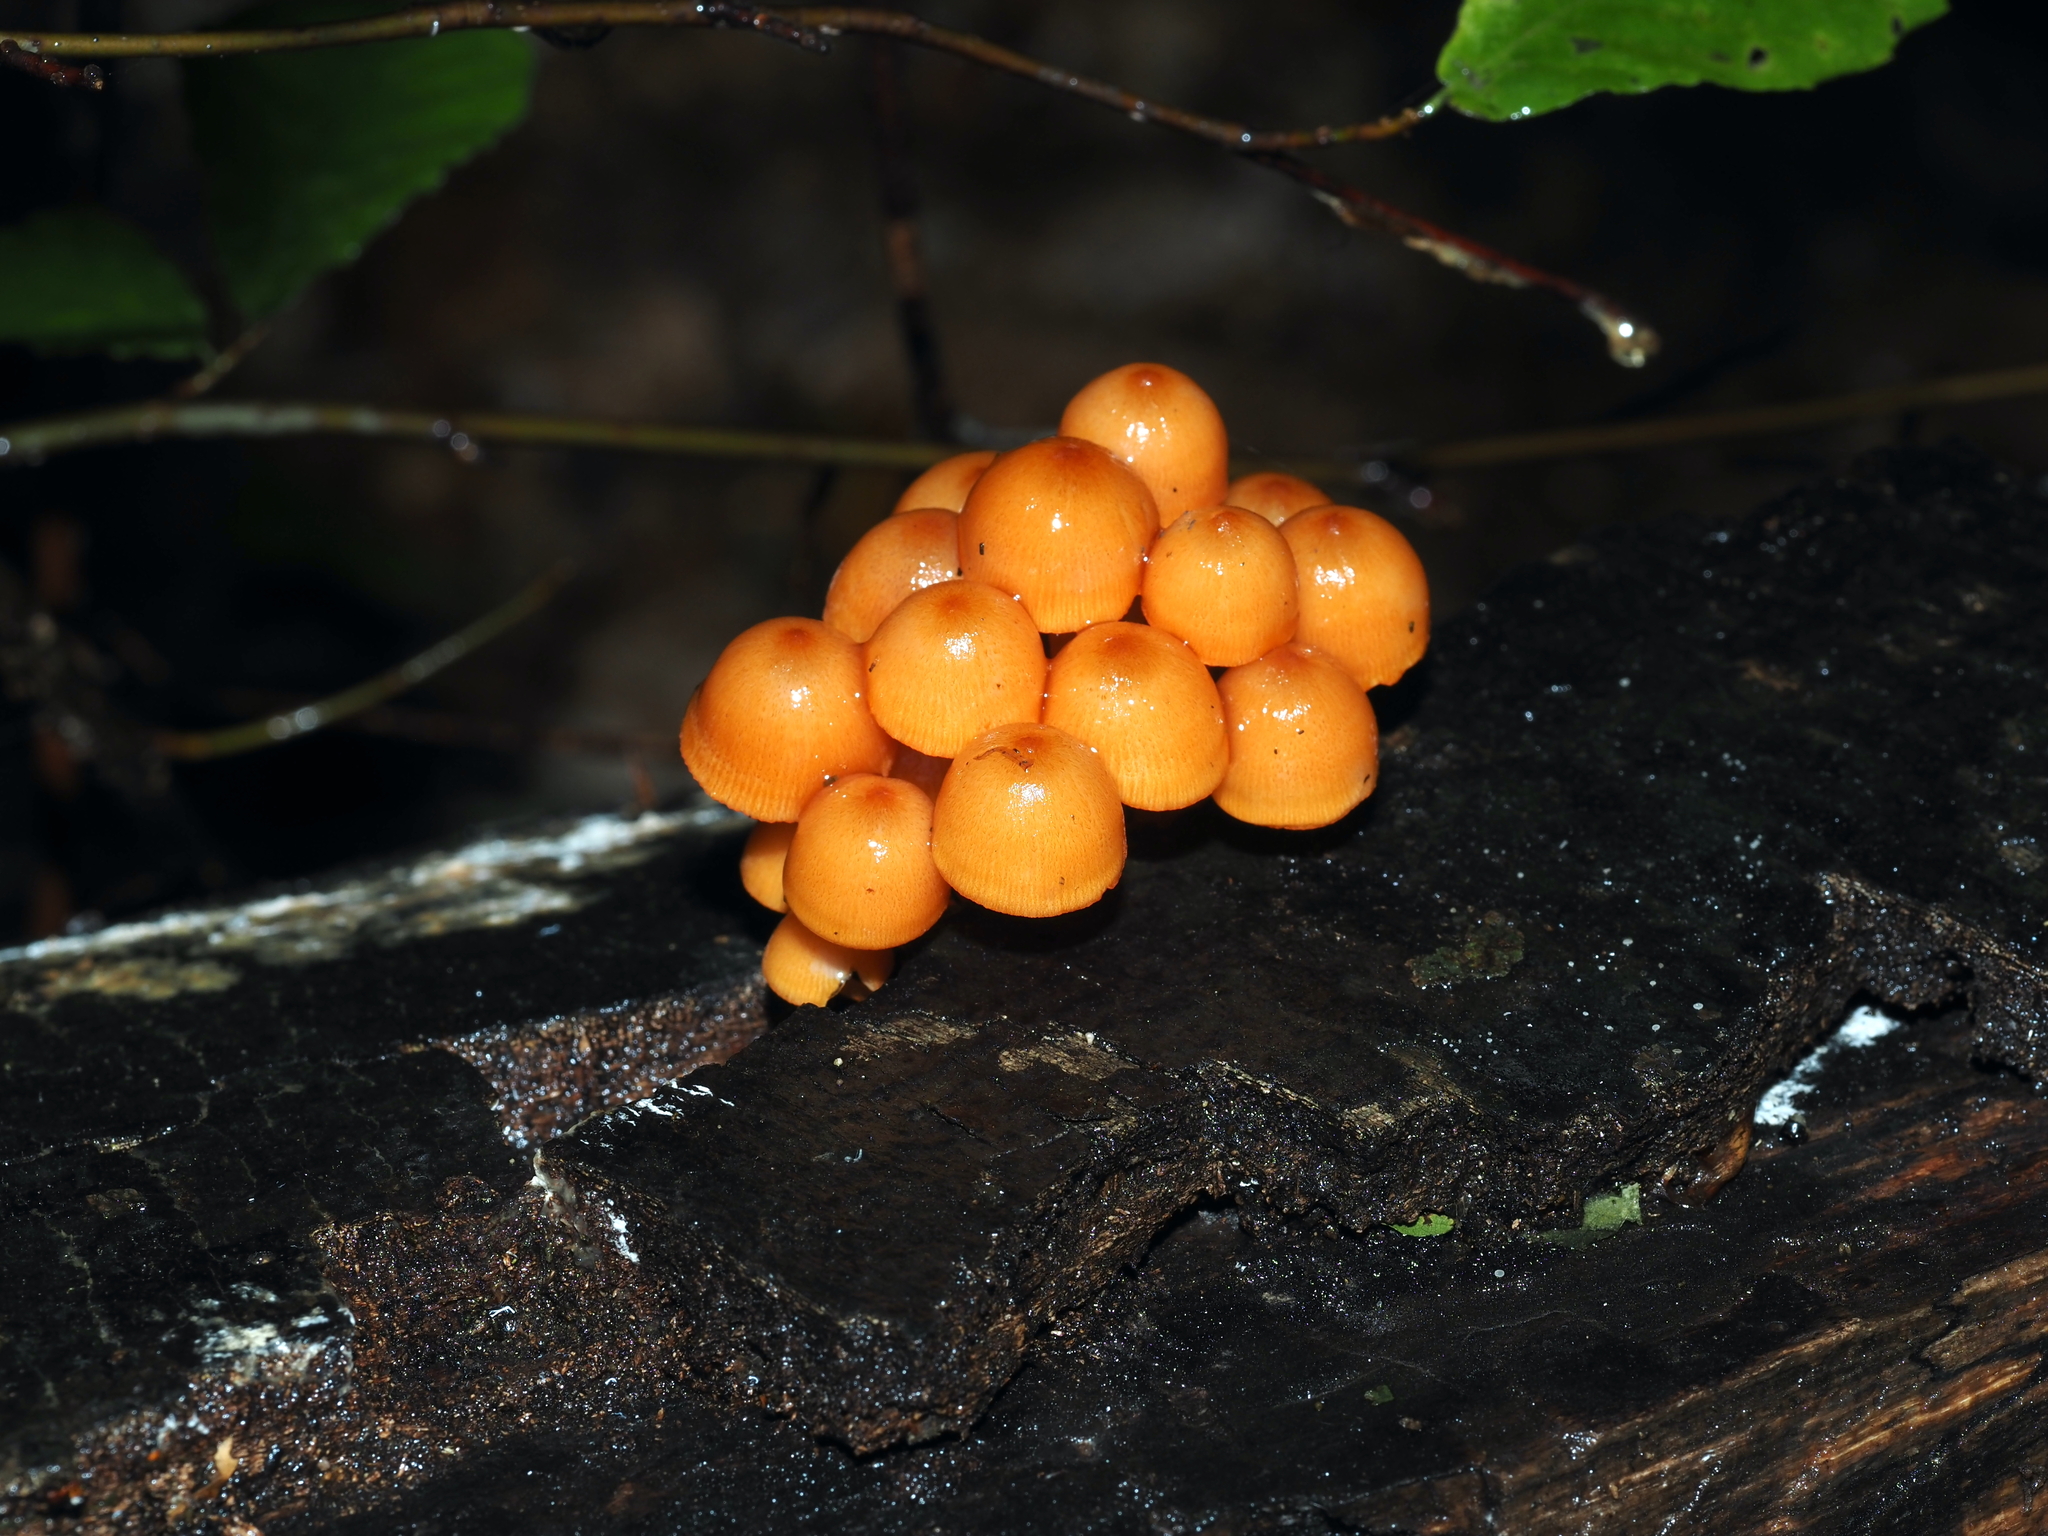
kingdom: Fungi
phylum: Basidiomycota
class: Agaricomycetes
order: Agaricales
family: Mycenaceae
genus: Mycena
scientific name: Mycena leaiana
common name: Orange mycena
